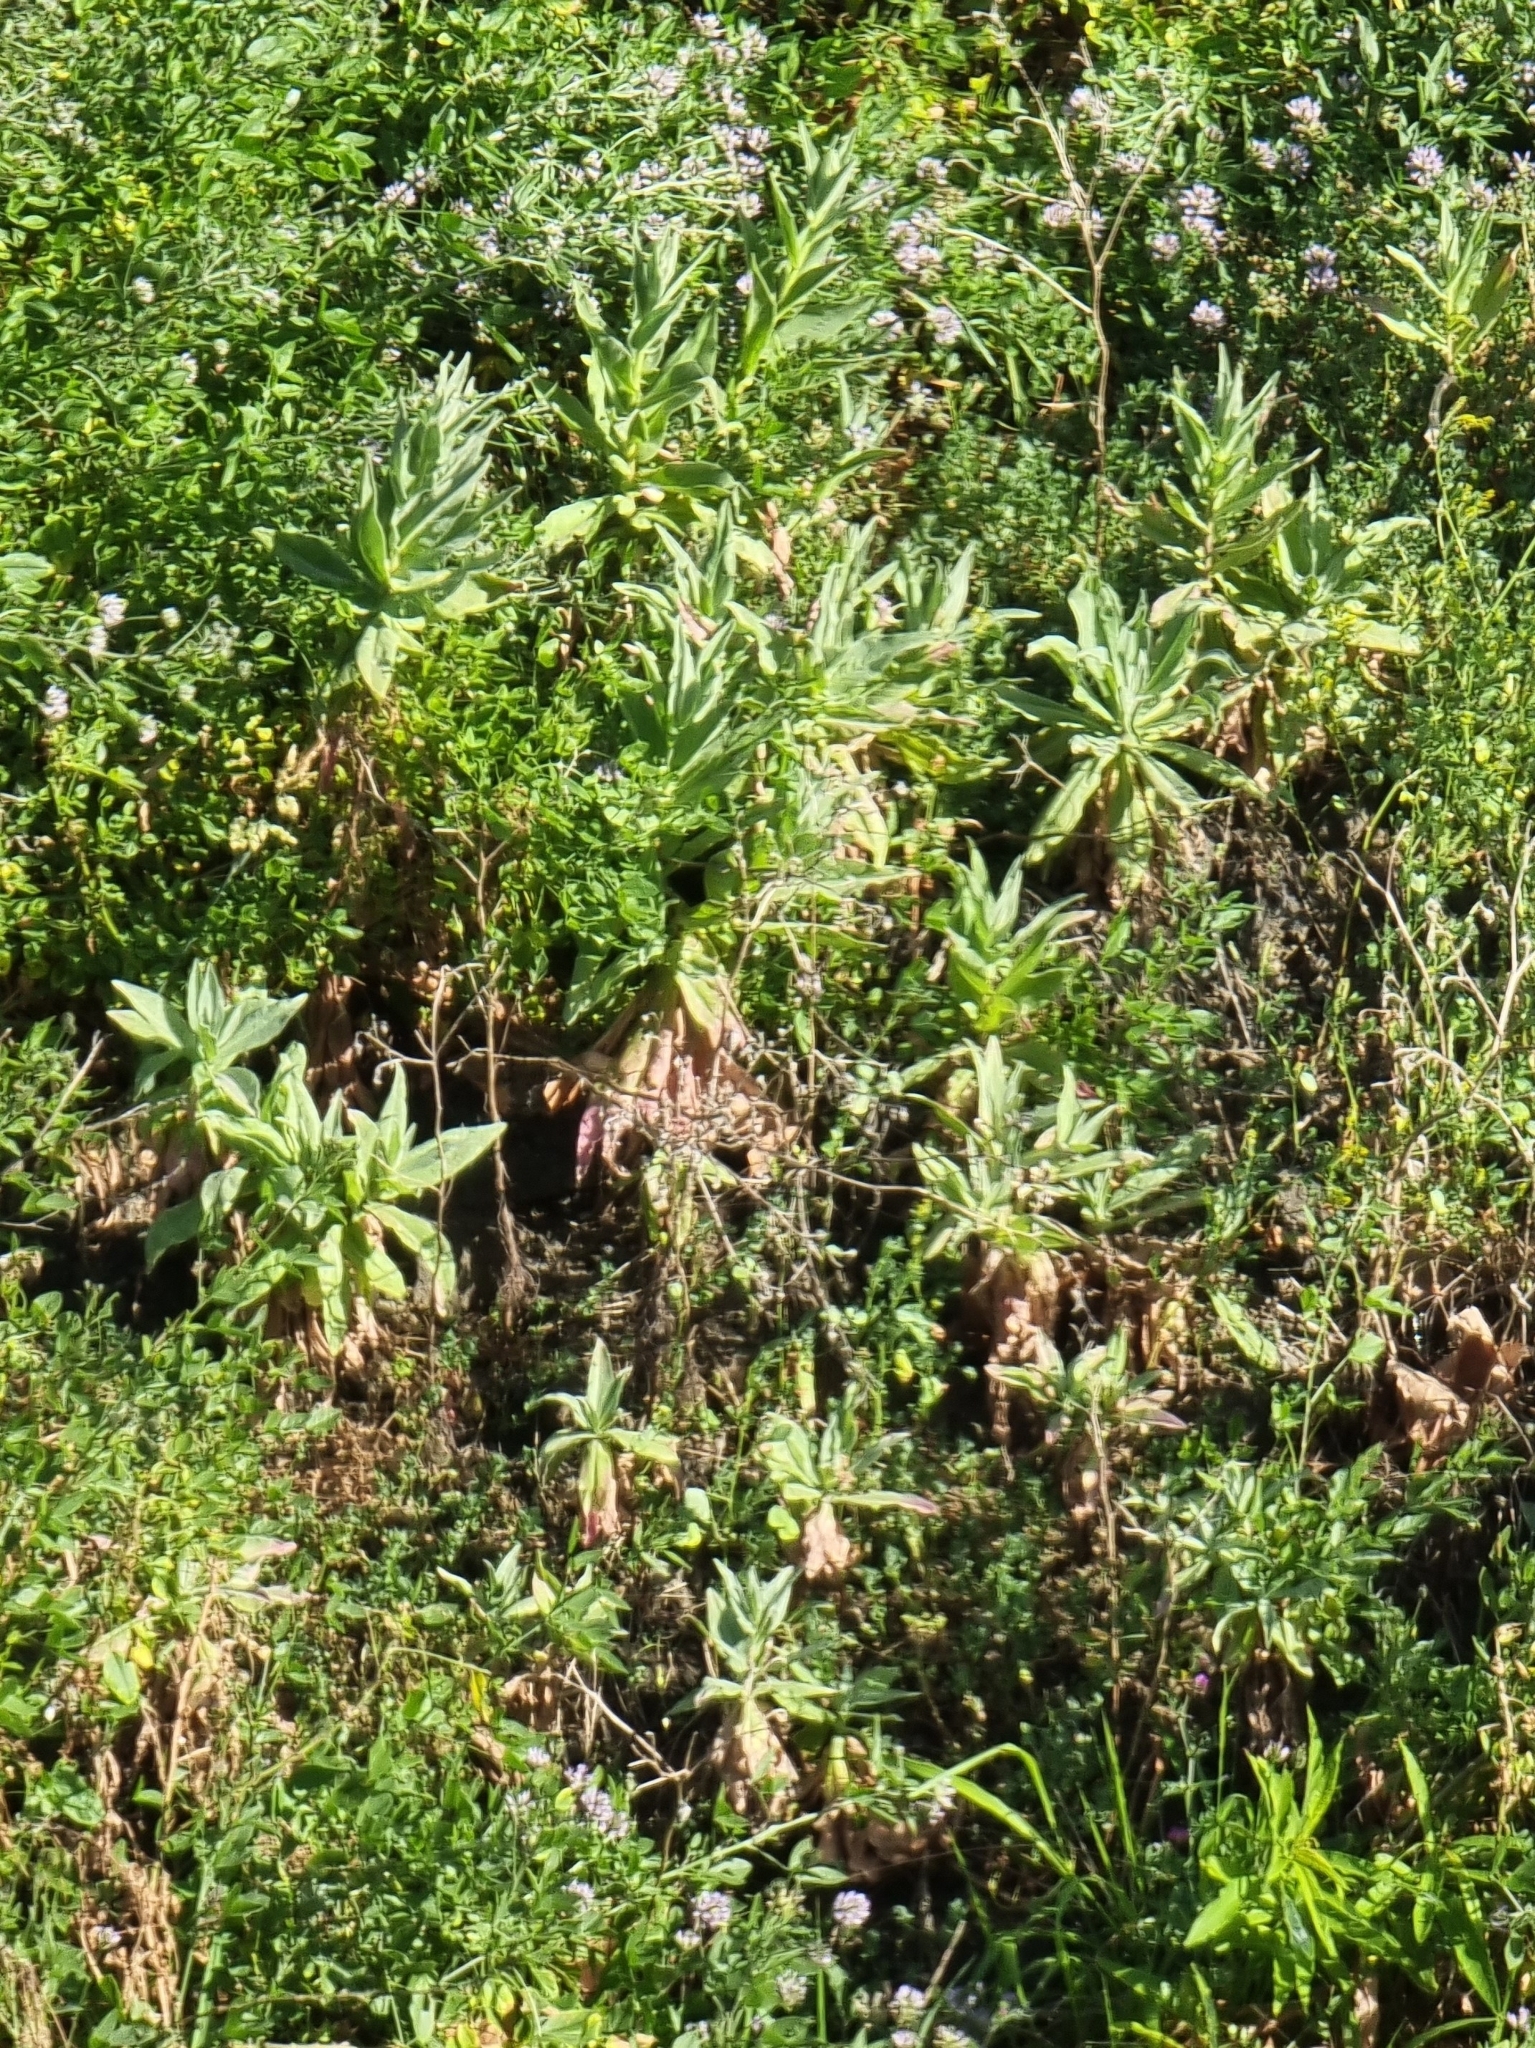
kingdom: Plantae
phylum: Tracheophyta
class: Magnoliopsida
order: Asterales
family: Asteraceae
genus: Andryala
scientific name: Andryala glandulosa
